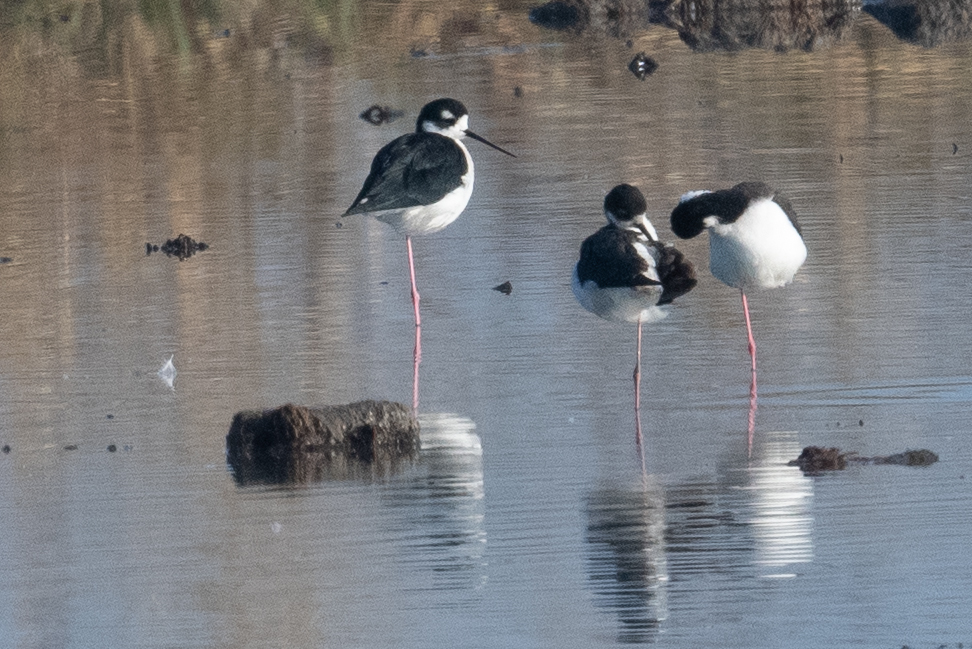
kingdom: Animalia
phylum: Chordata
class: Aves
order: Charadriiformes
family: Recurvirostridae
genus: Himantopus
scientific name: Himantopus mexicanus
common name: Black-necked stilt
